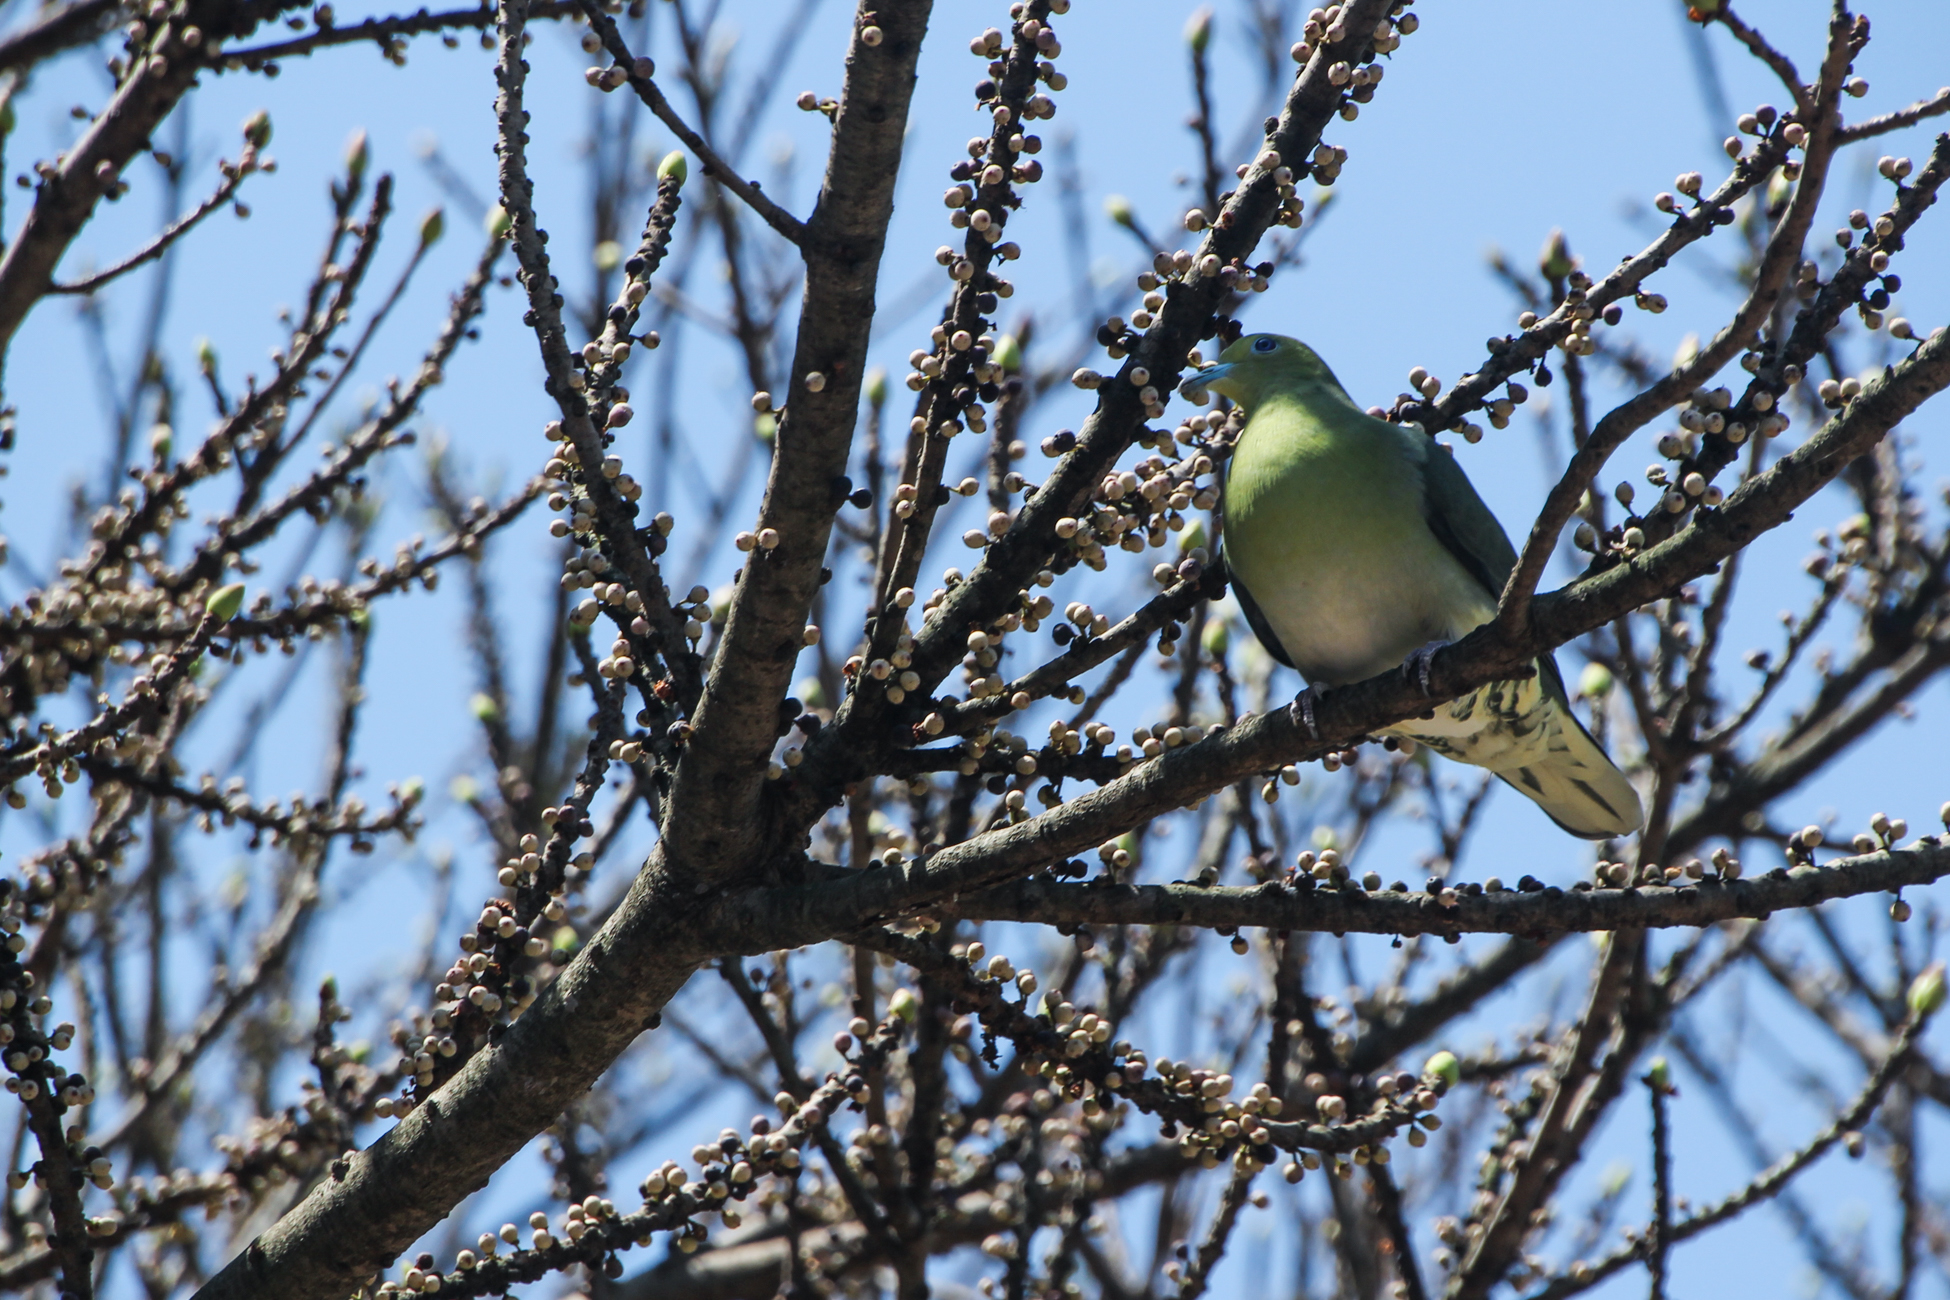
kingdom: Animalia
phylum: Chordata
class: Aves
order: Columbiformes
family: Columbidae
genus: Treron
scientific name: Treron sieboldii
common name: White-bellied green pigeon
